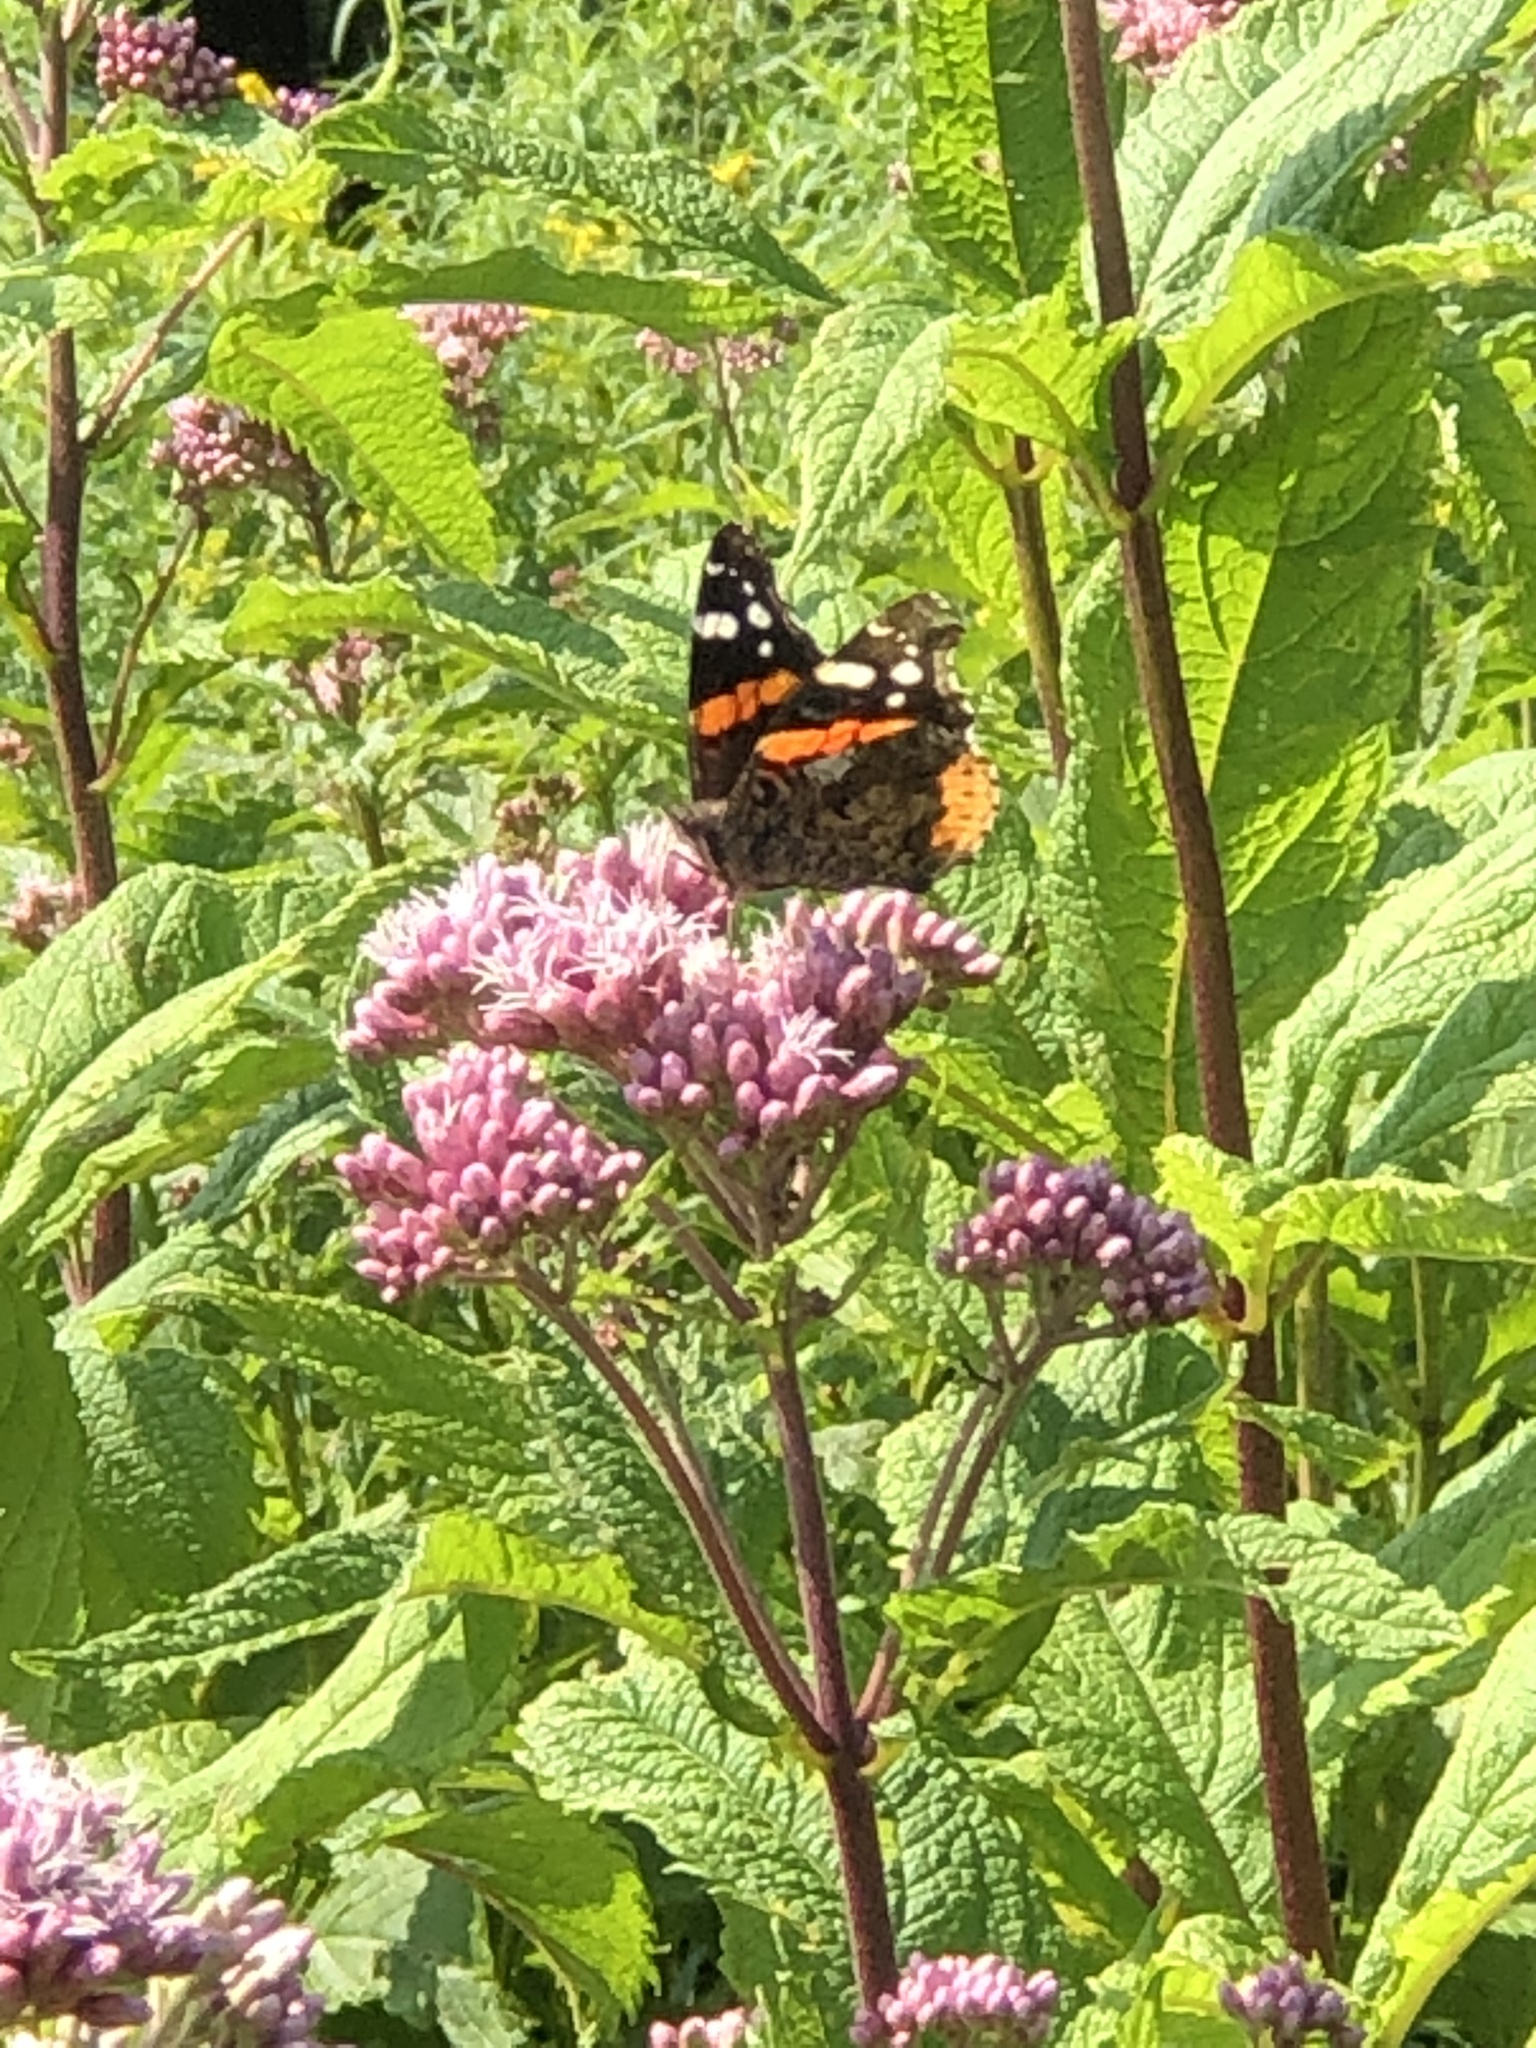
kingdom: Animalia
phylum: Arthropoda
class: Insecta
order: Lepidoptera
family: Nymphalidae
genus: Vanessa
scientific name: Vanessa atalanta
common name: Red admiral
